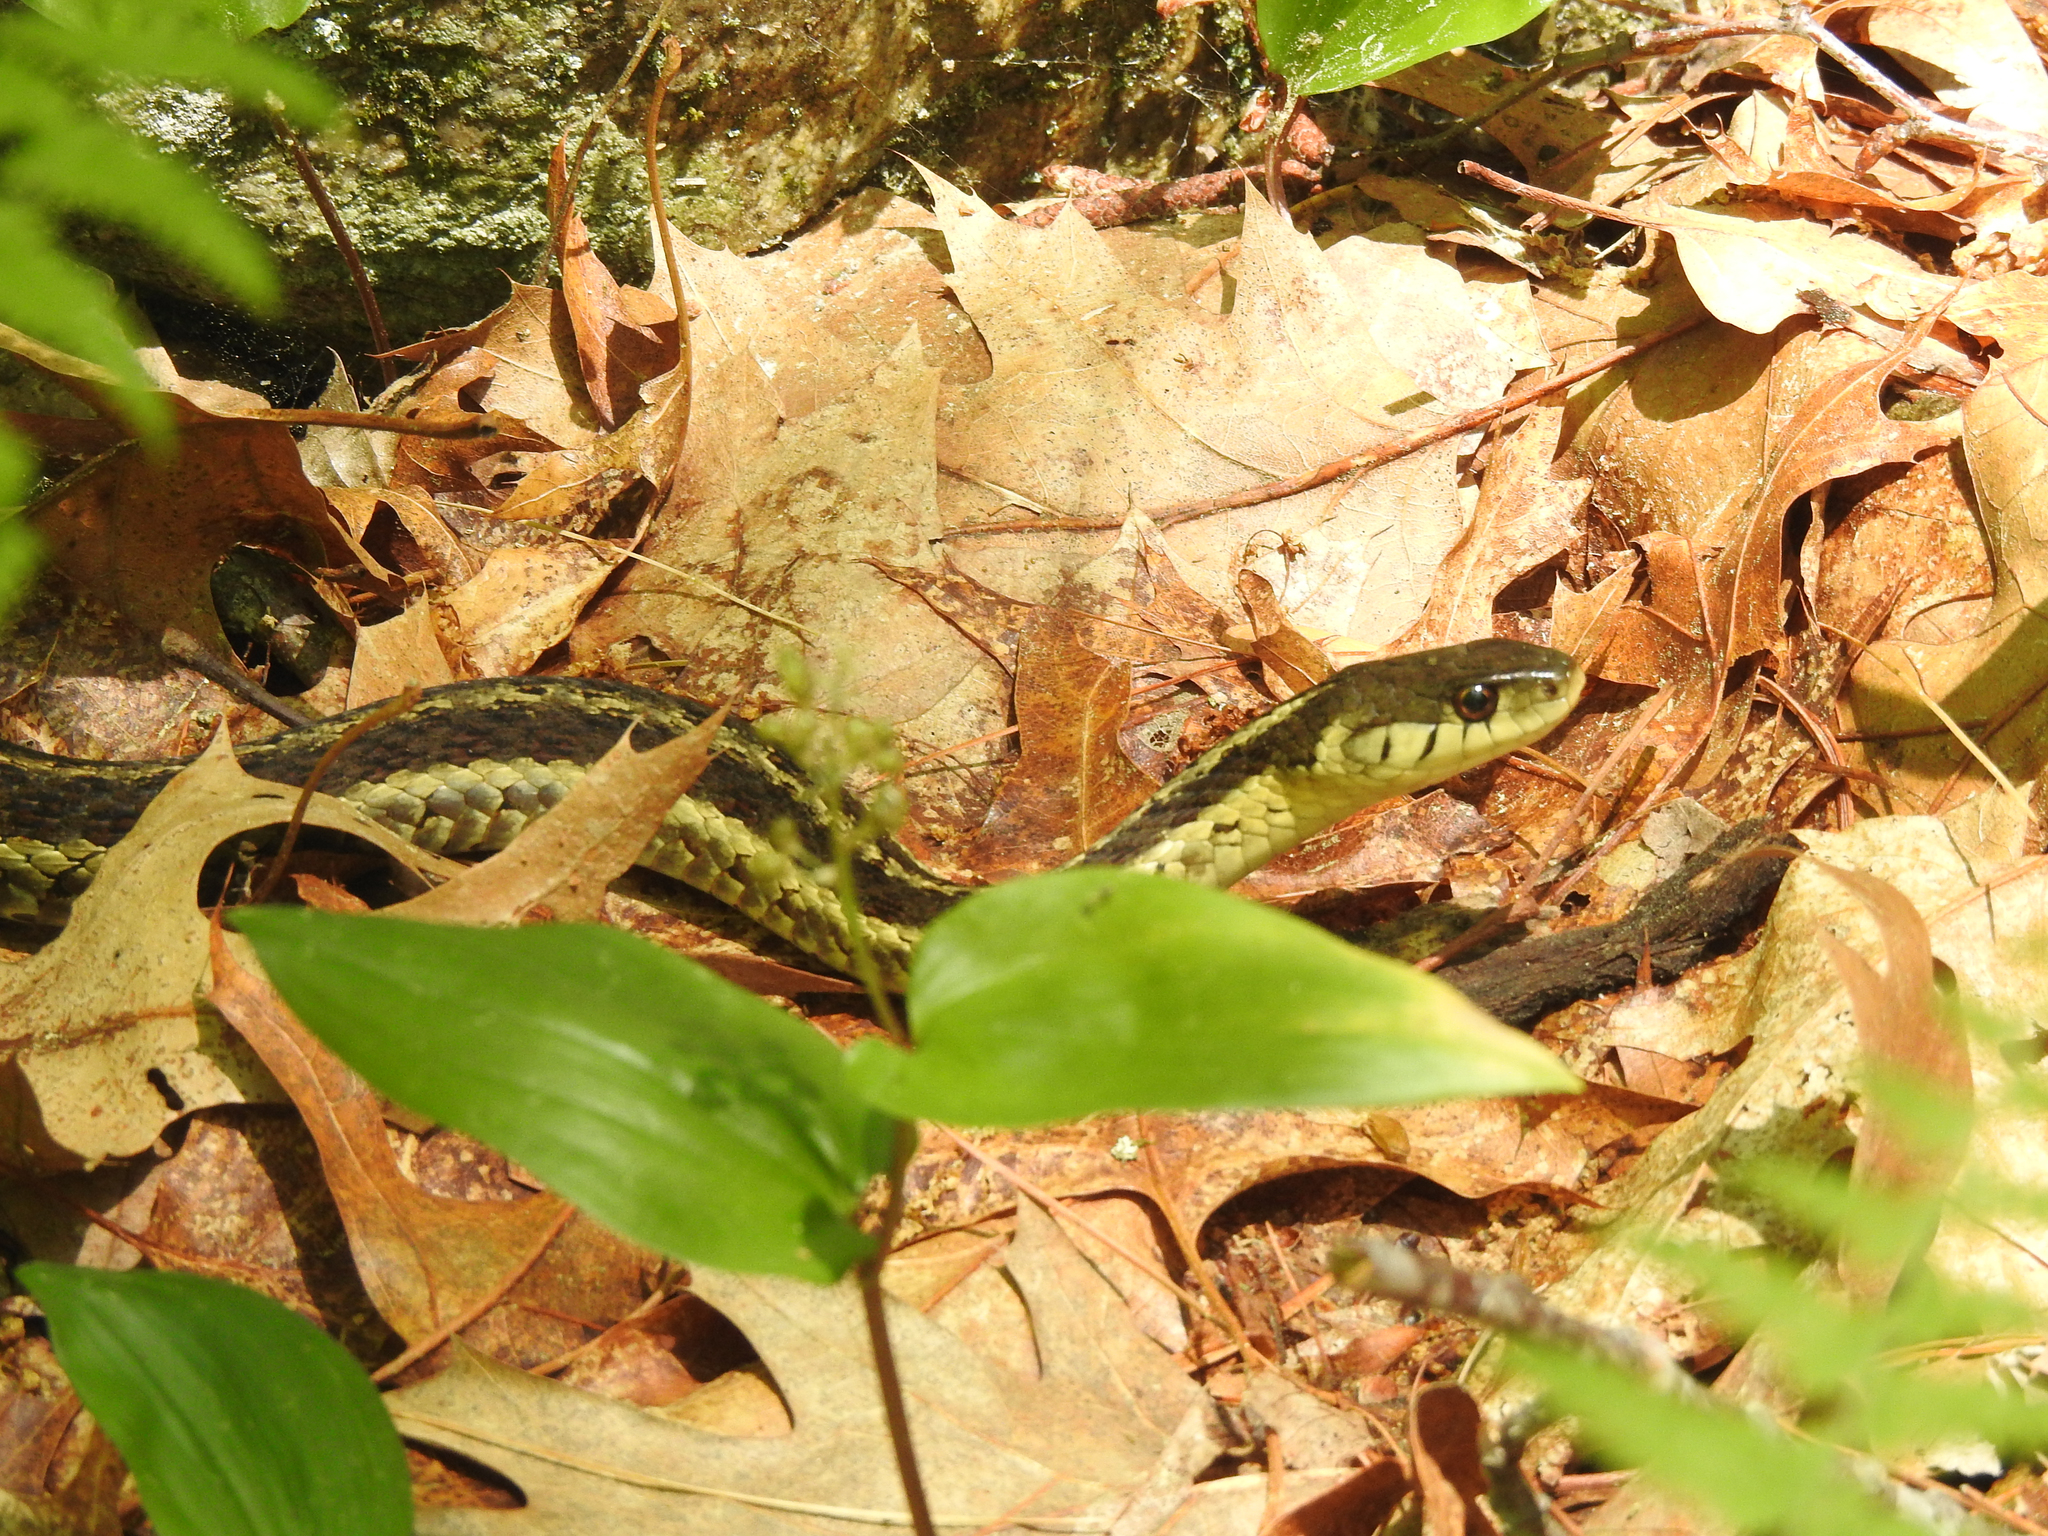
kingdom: Animalia
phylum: Chordata
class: Squamata
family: Colubridae
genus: Thamnophis
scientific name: Thamnophis sirtalis
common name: Common garter snake
